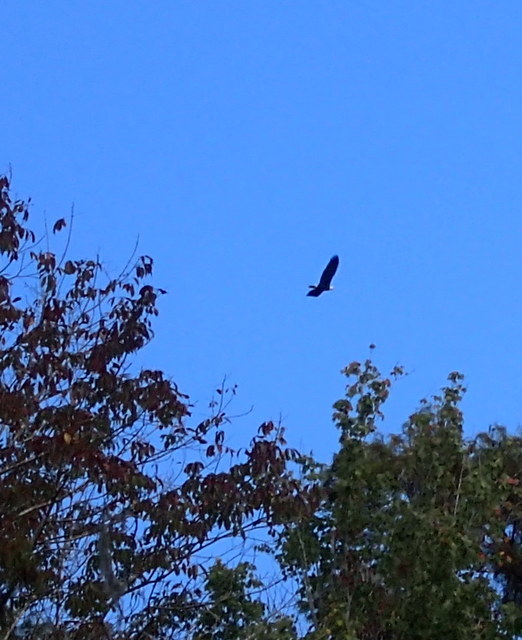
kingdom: Animalia
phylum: Chordata
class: Aves
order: Accipitriformes
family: Accipitridae
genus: Haliaeetus
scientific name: Haliaeetus leucocephalus
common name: Bald eagle
